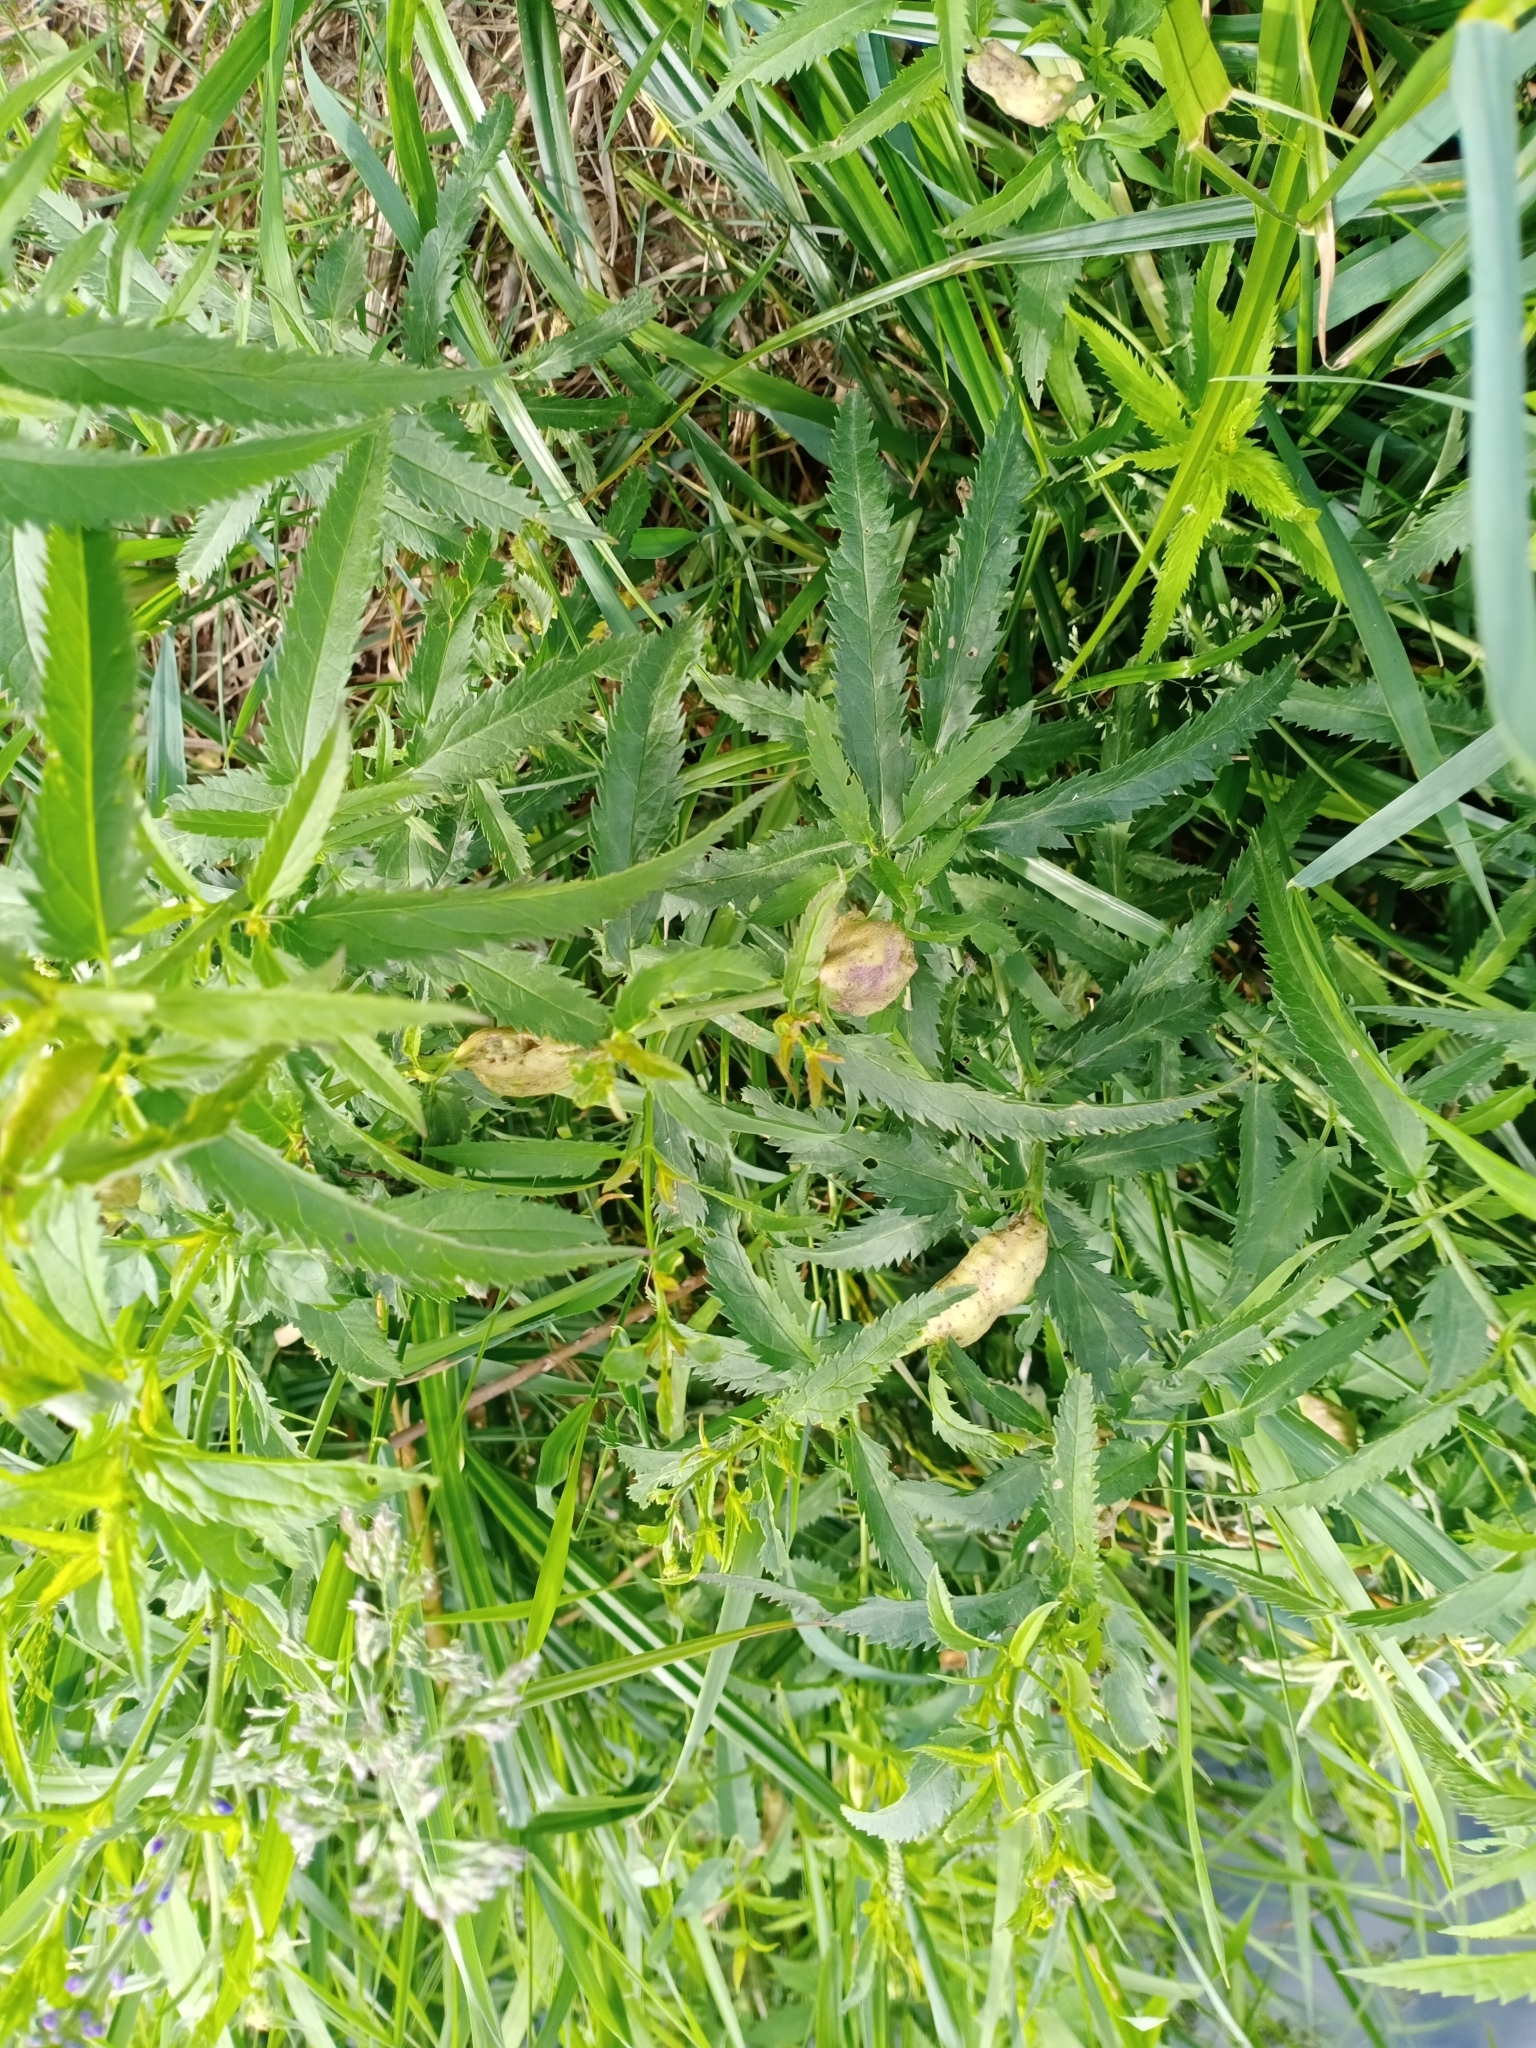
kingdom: Plantae
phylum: Tracheophyta
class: Magnoliopsida
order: Lamiales
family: Plantaginaceae
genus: Veronica
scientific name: Veronica longifolia
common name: Garden speedwell
